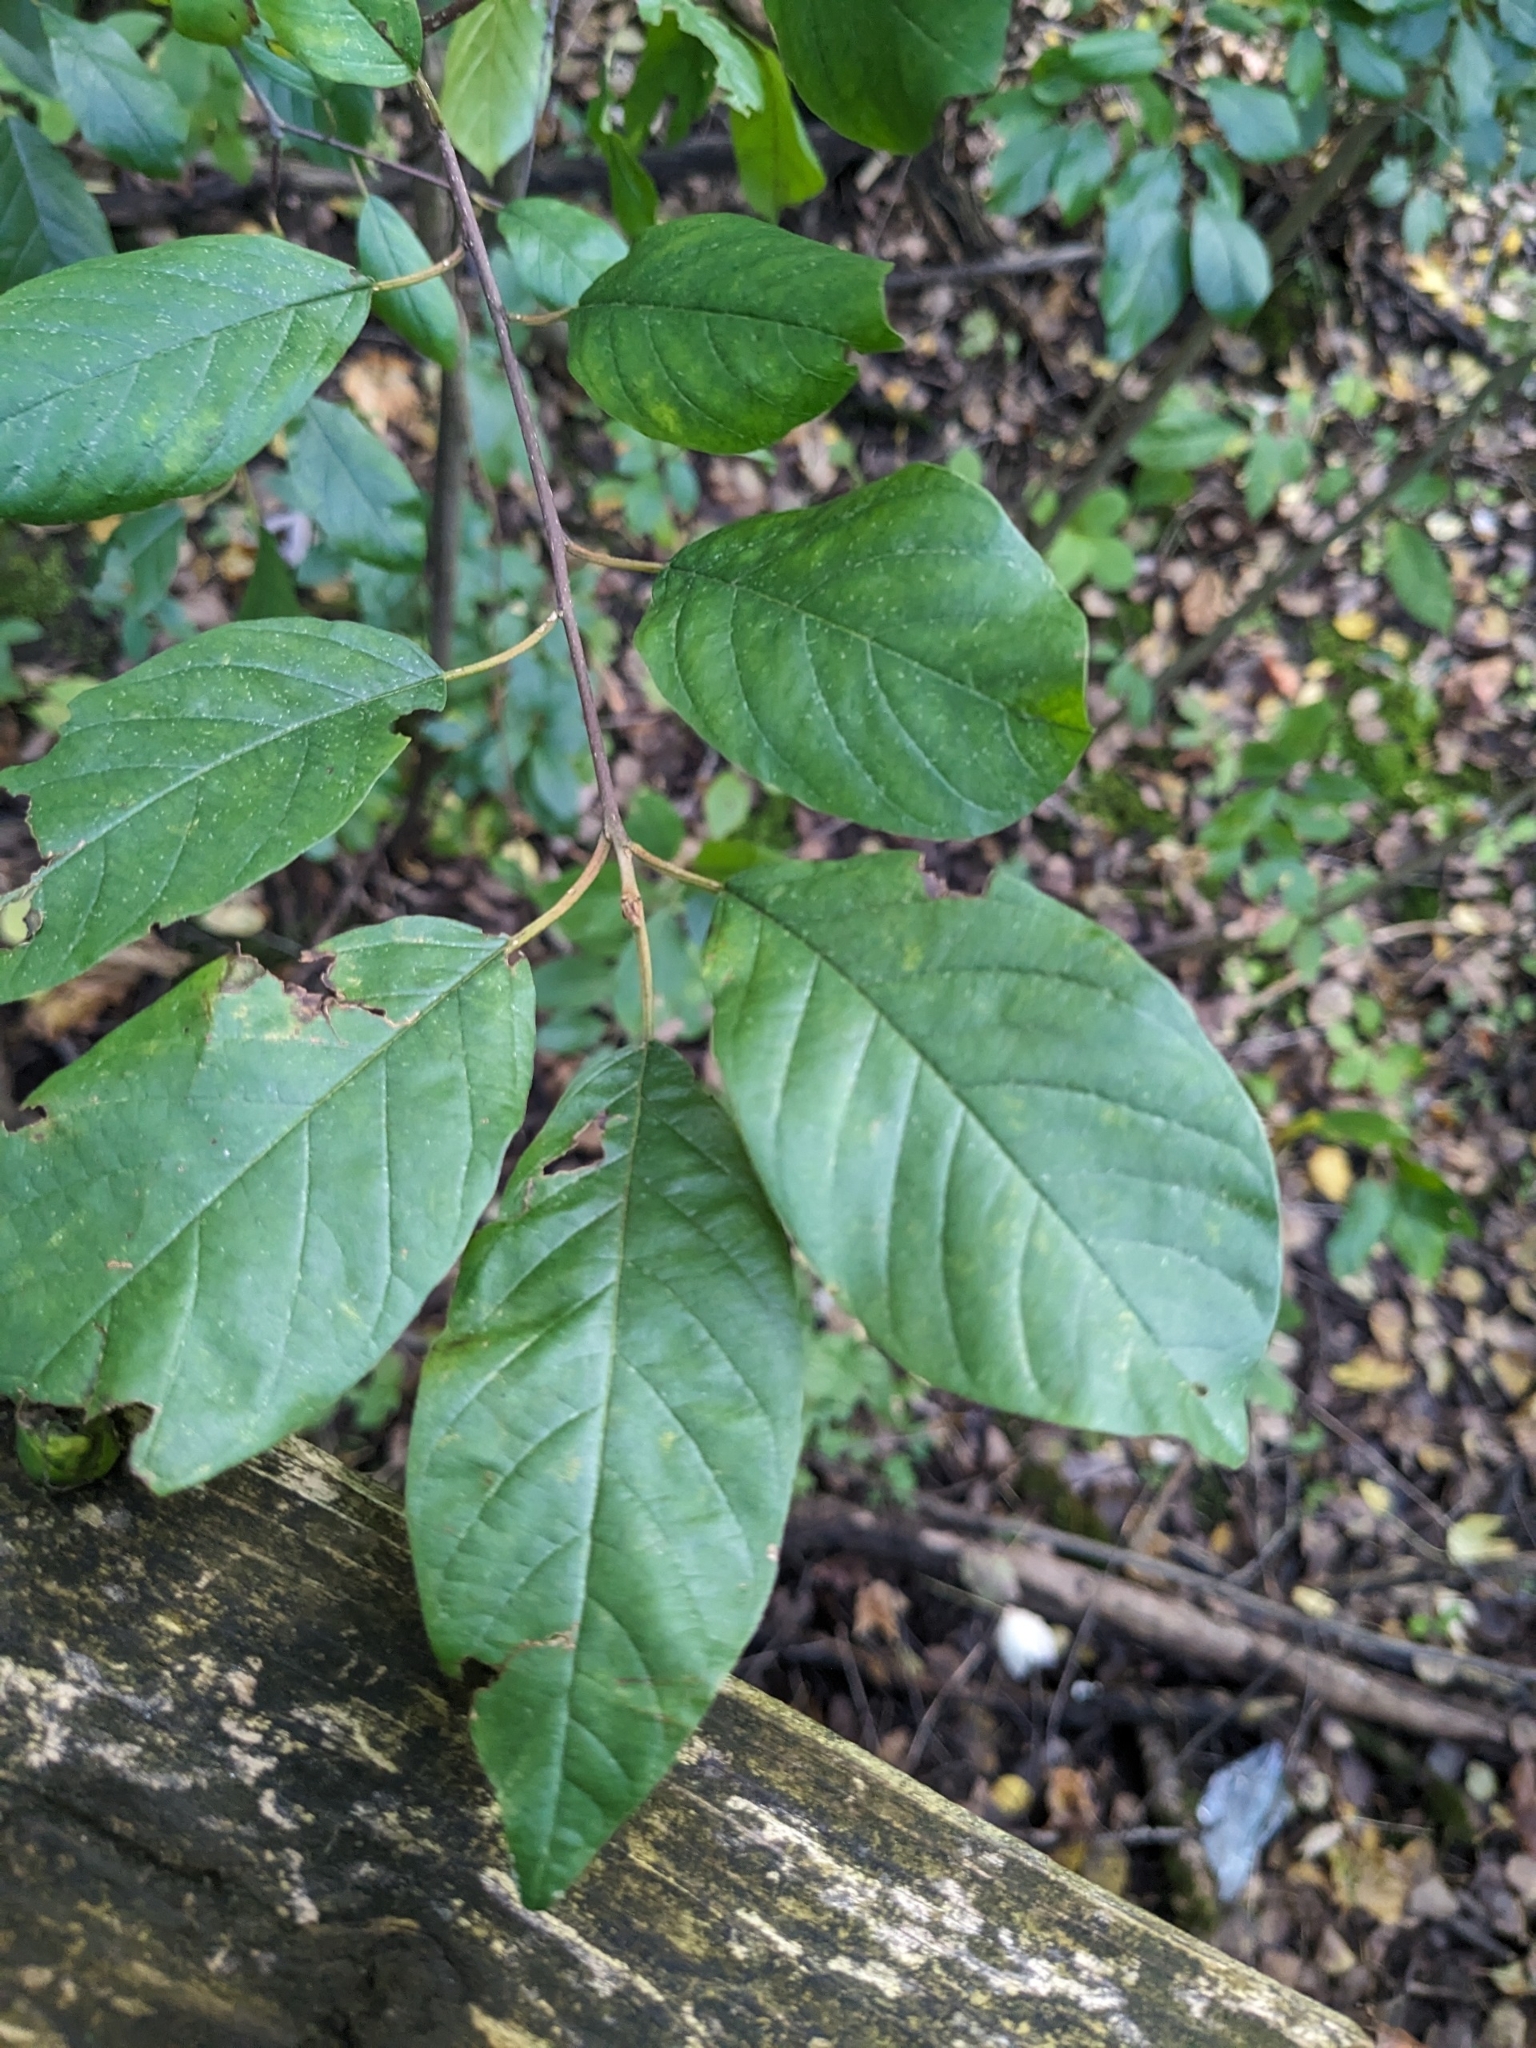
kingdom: Plantae
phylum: Tracheophyta
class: Magnoliopsida
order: Rosales
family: Rhamnaceae
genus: Frangula
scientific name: Frangula alnus
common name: Alder buckthorn
